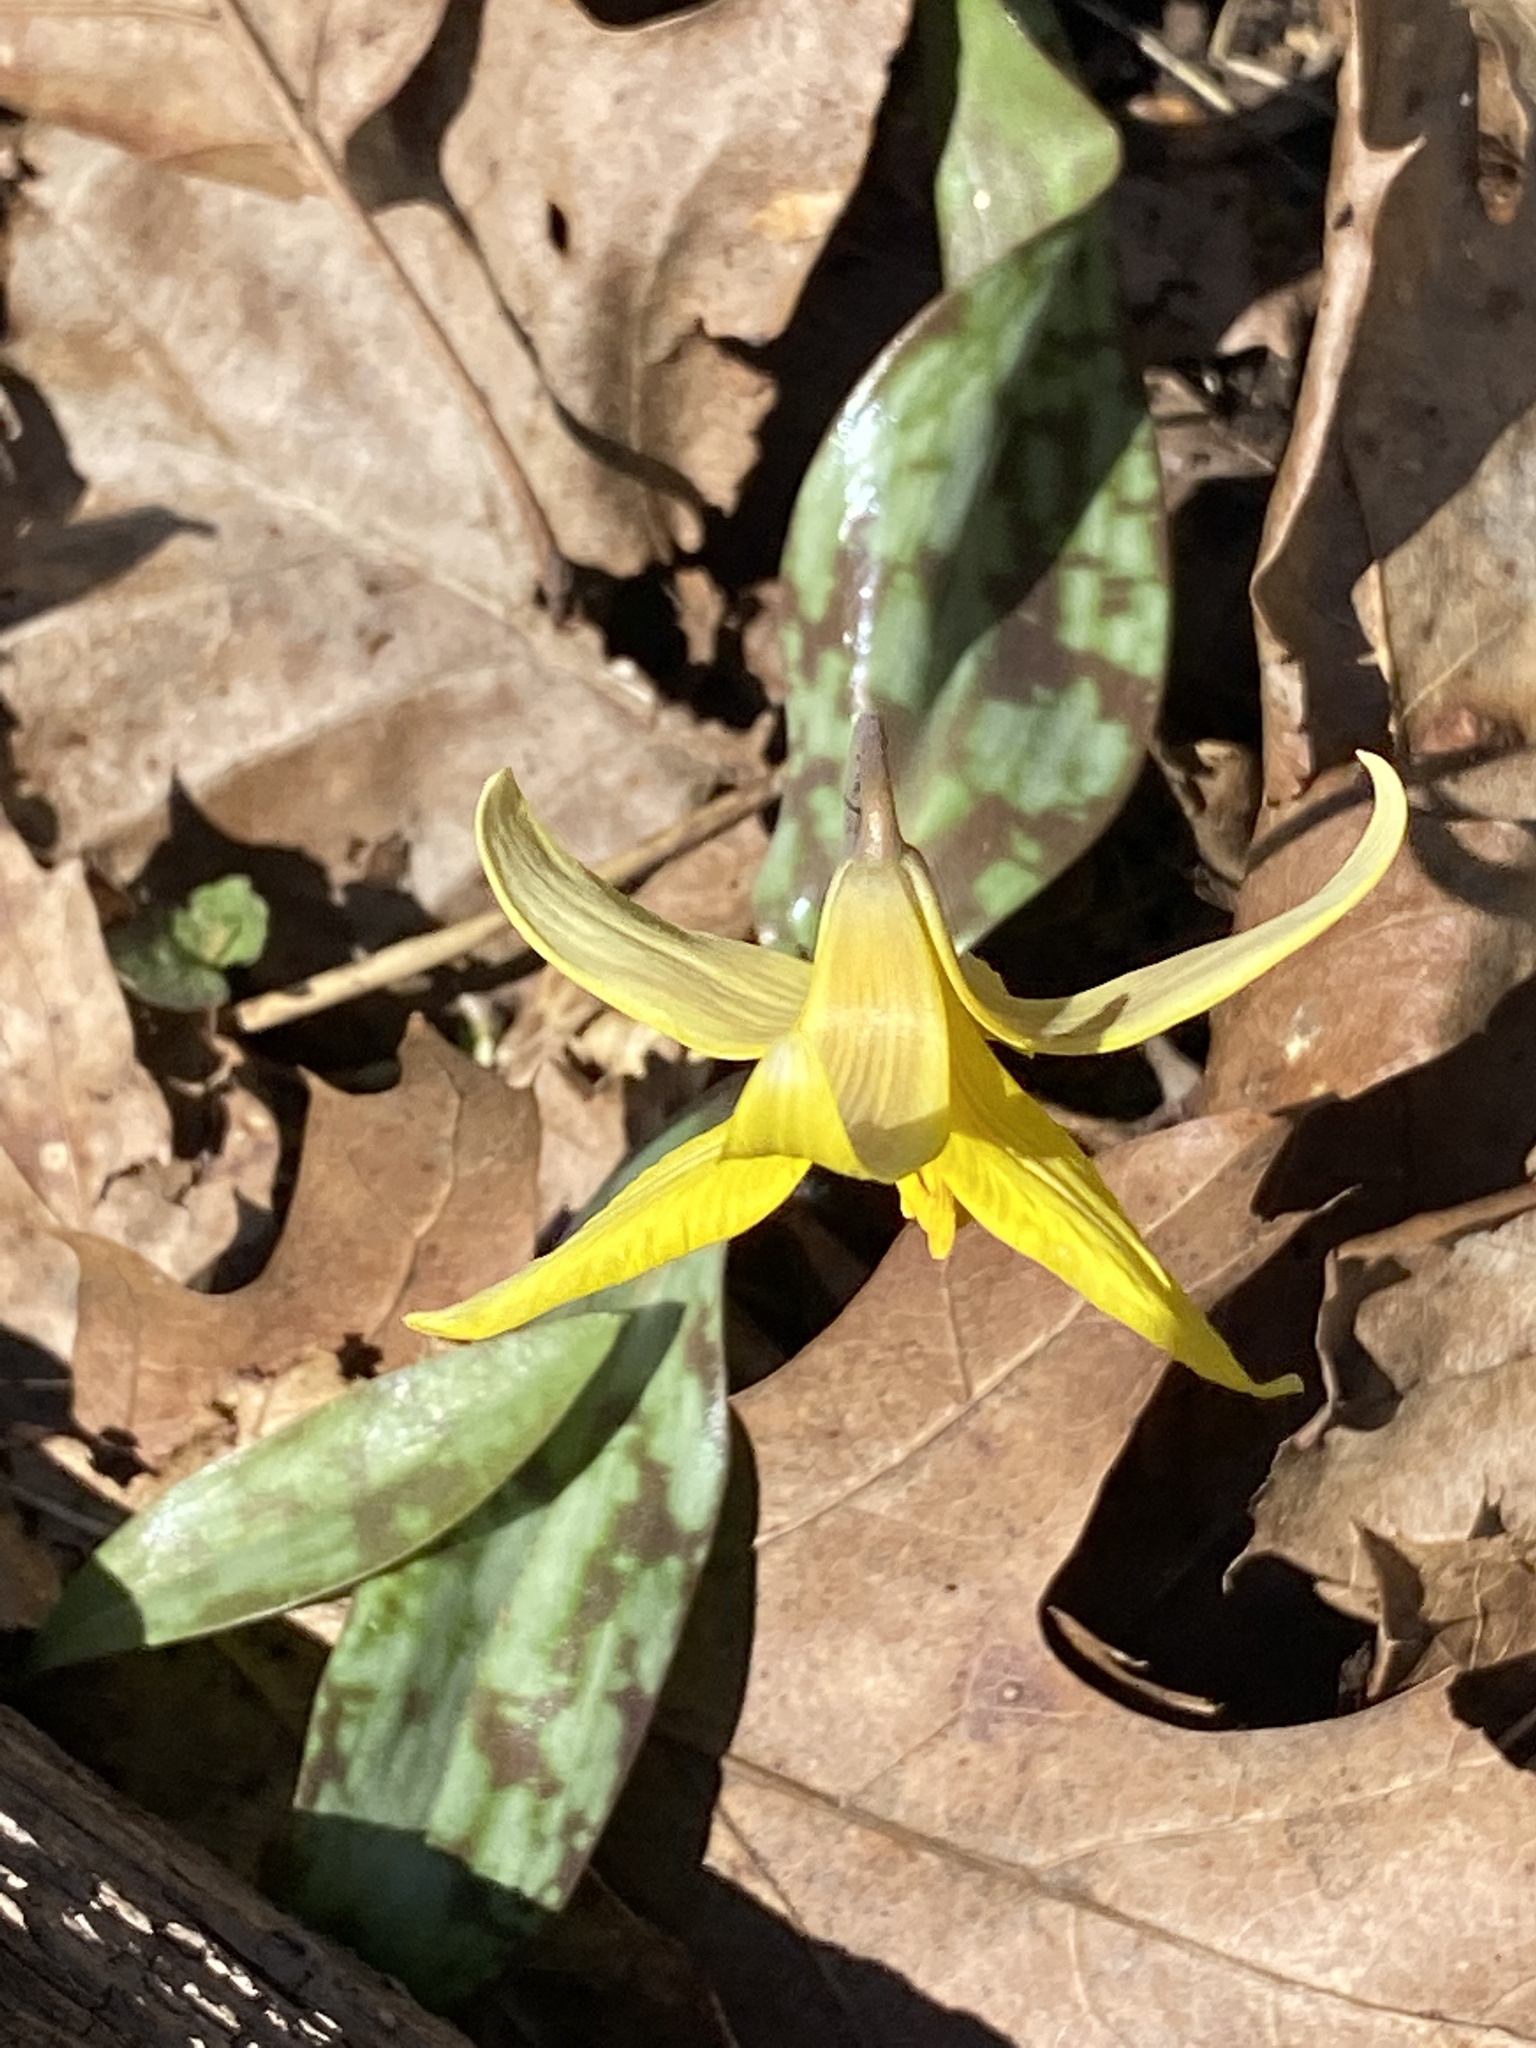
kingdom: Plantae
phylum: Tracheophyta
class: Liliopsida
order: Liliales
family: Liliaceae
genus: Erythronium
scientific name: Erythronium americanum
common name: Yellow adder's-tongue
